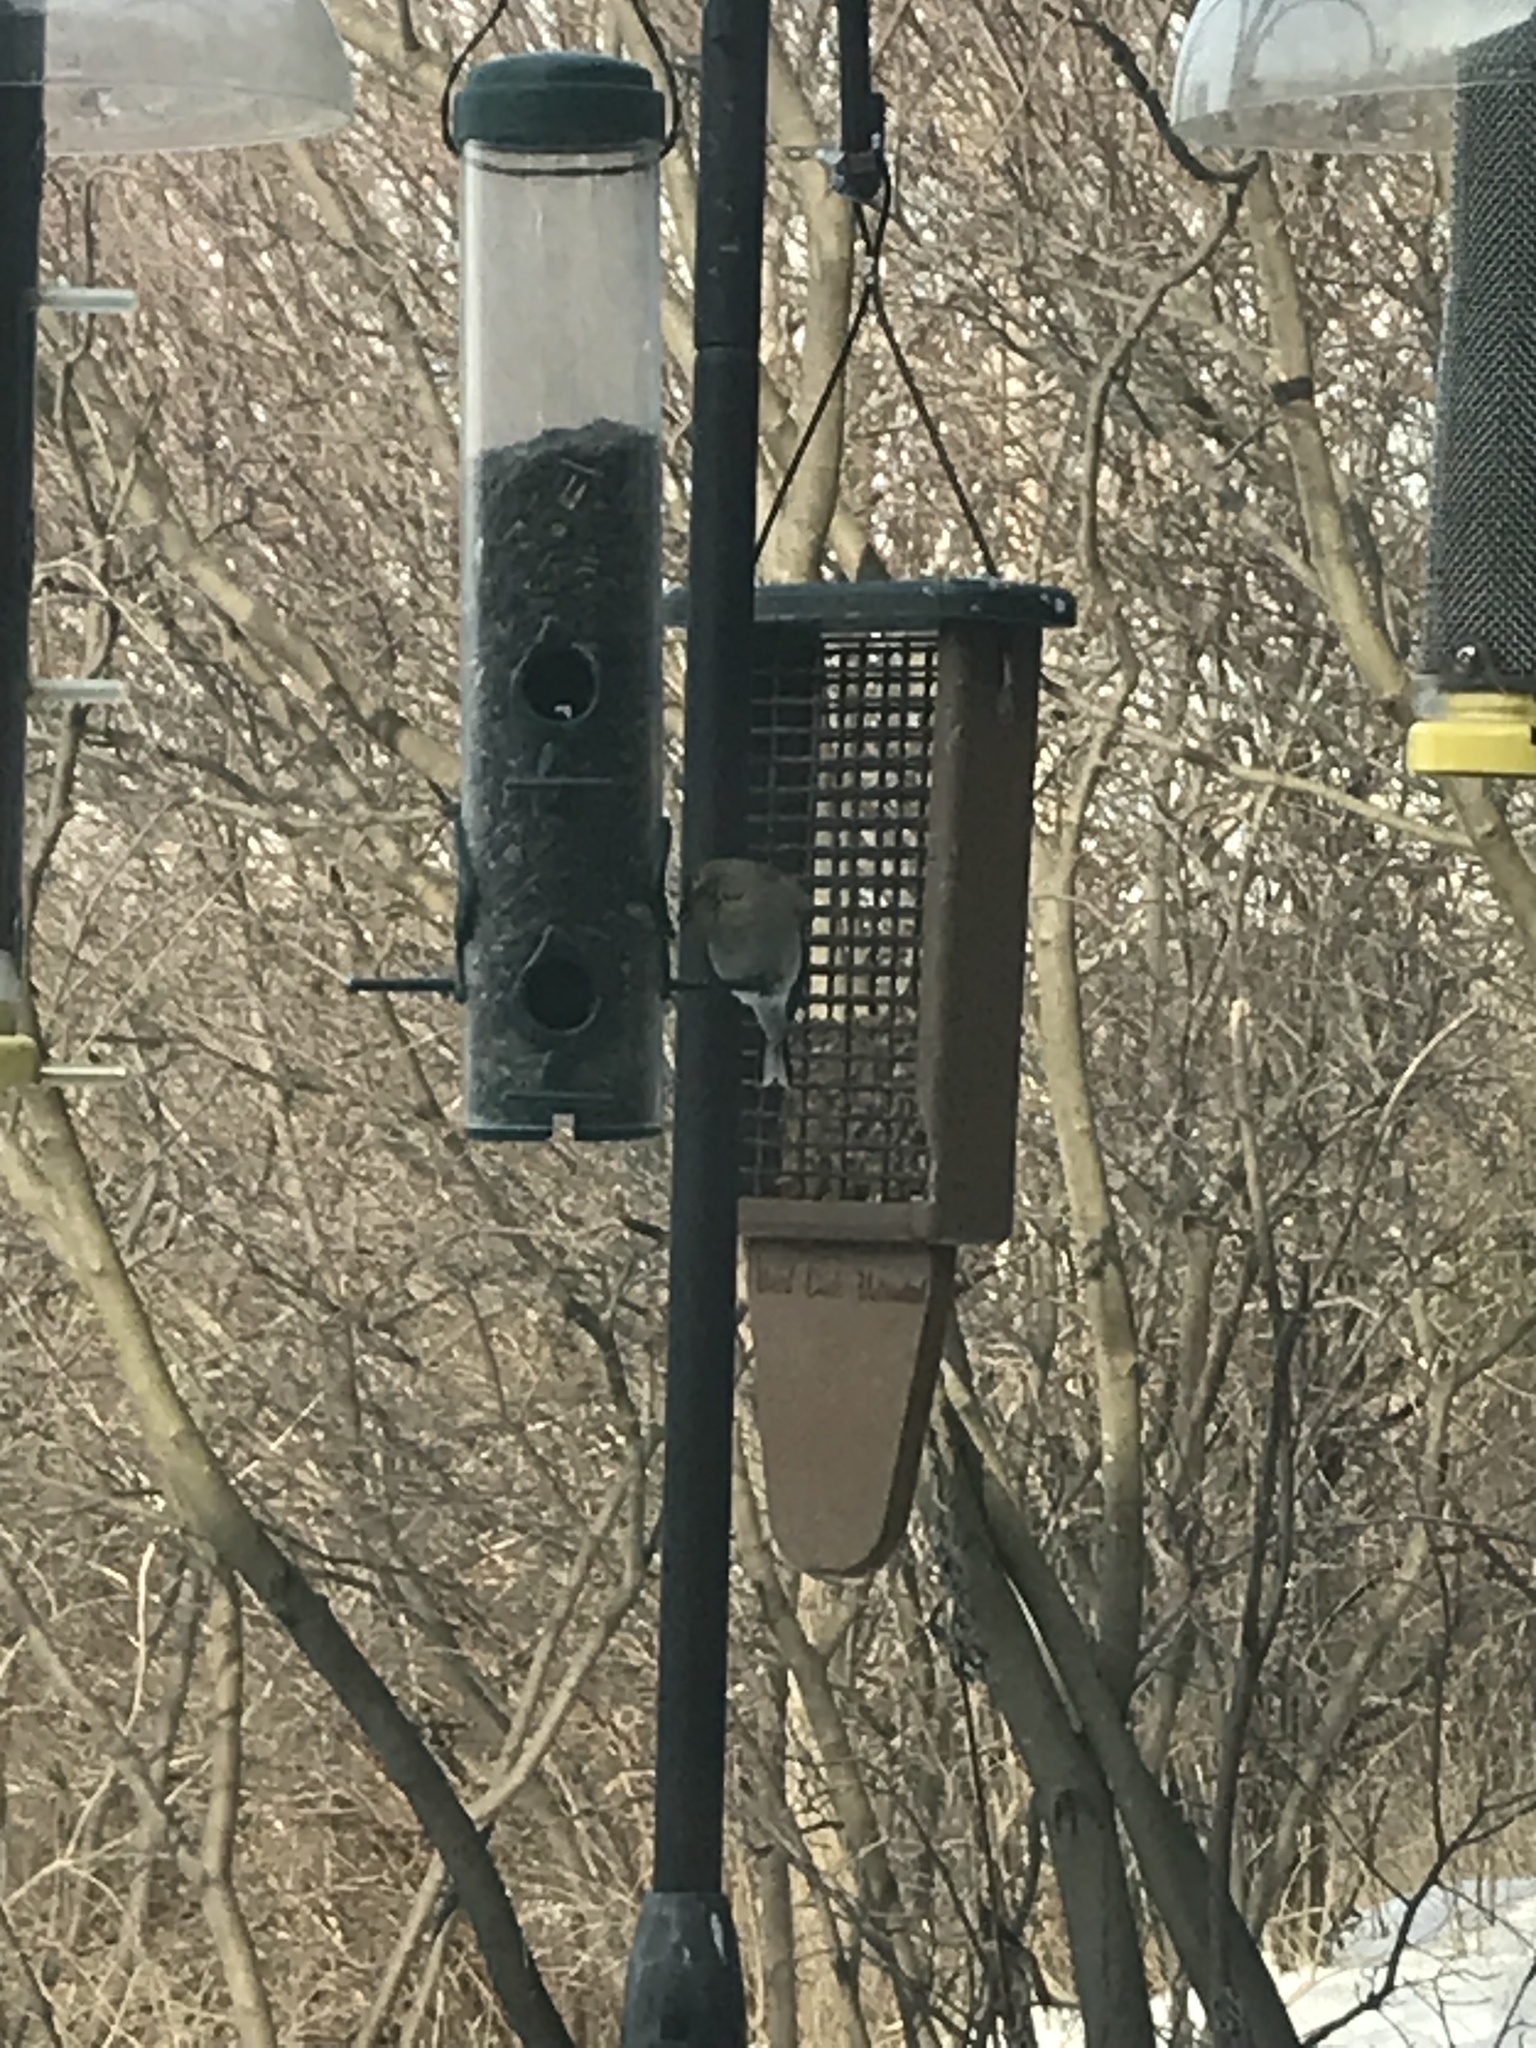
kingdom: Animalia
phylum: Chordata
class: Aves
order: Passeriformes
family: Fringillidae
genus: Spinus
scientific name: Spinus tristis
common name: American goldfinch
